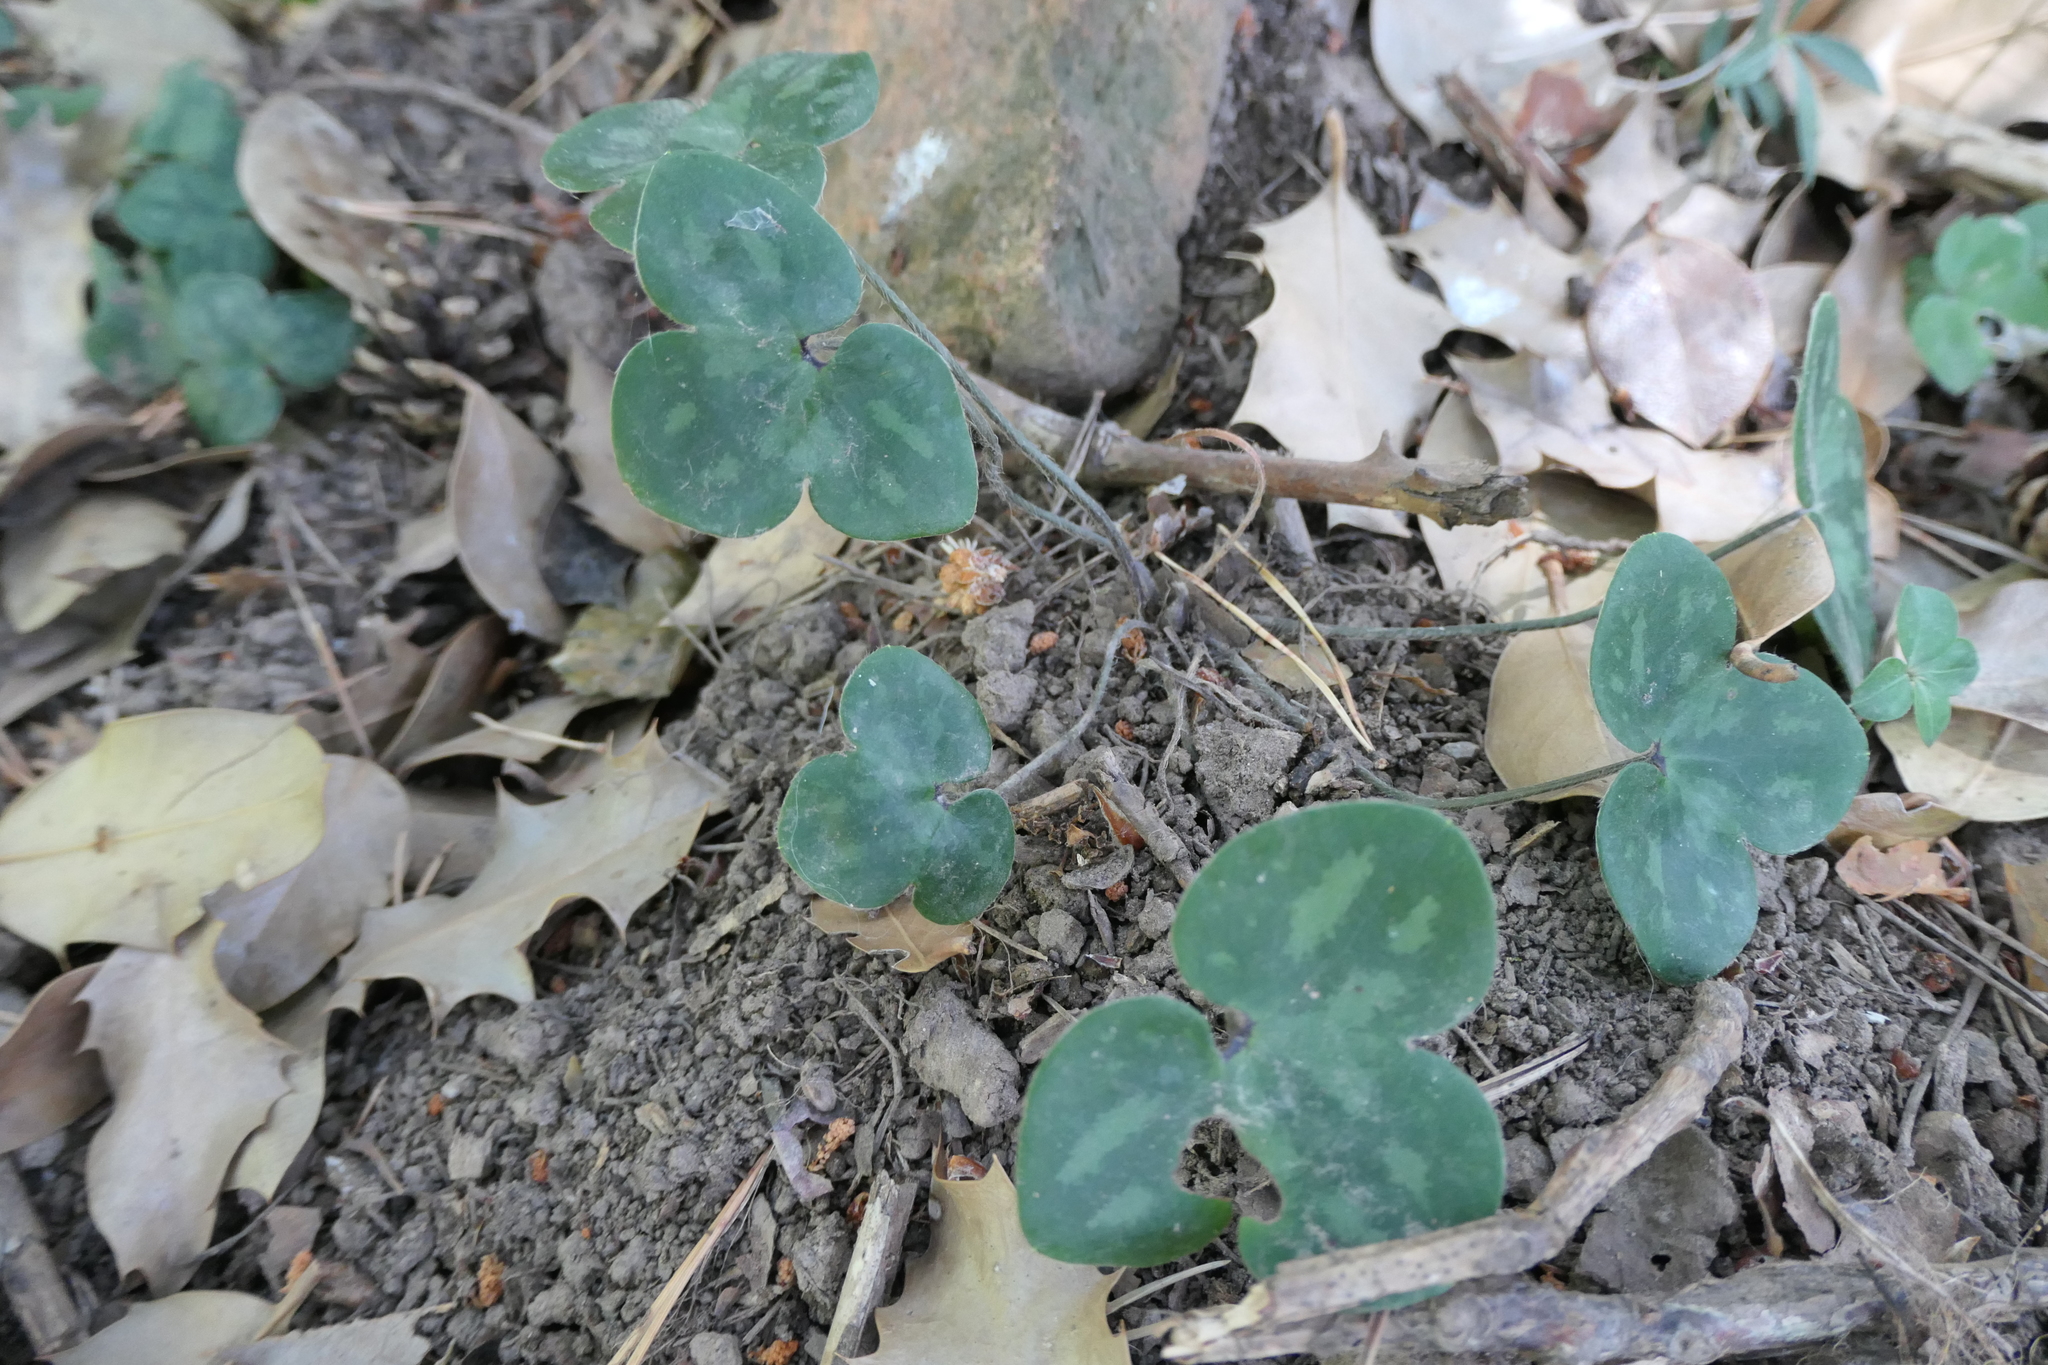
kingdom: Plantae
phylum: Tracheophyta
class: Magnoliopsida
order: Ranunculales
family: Ranunculaceae
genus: Hepatica
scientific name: Hepatica nobilis
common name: Liverleaf
